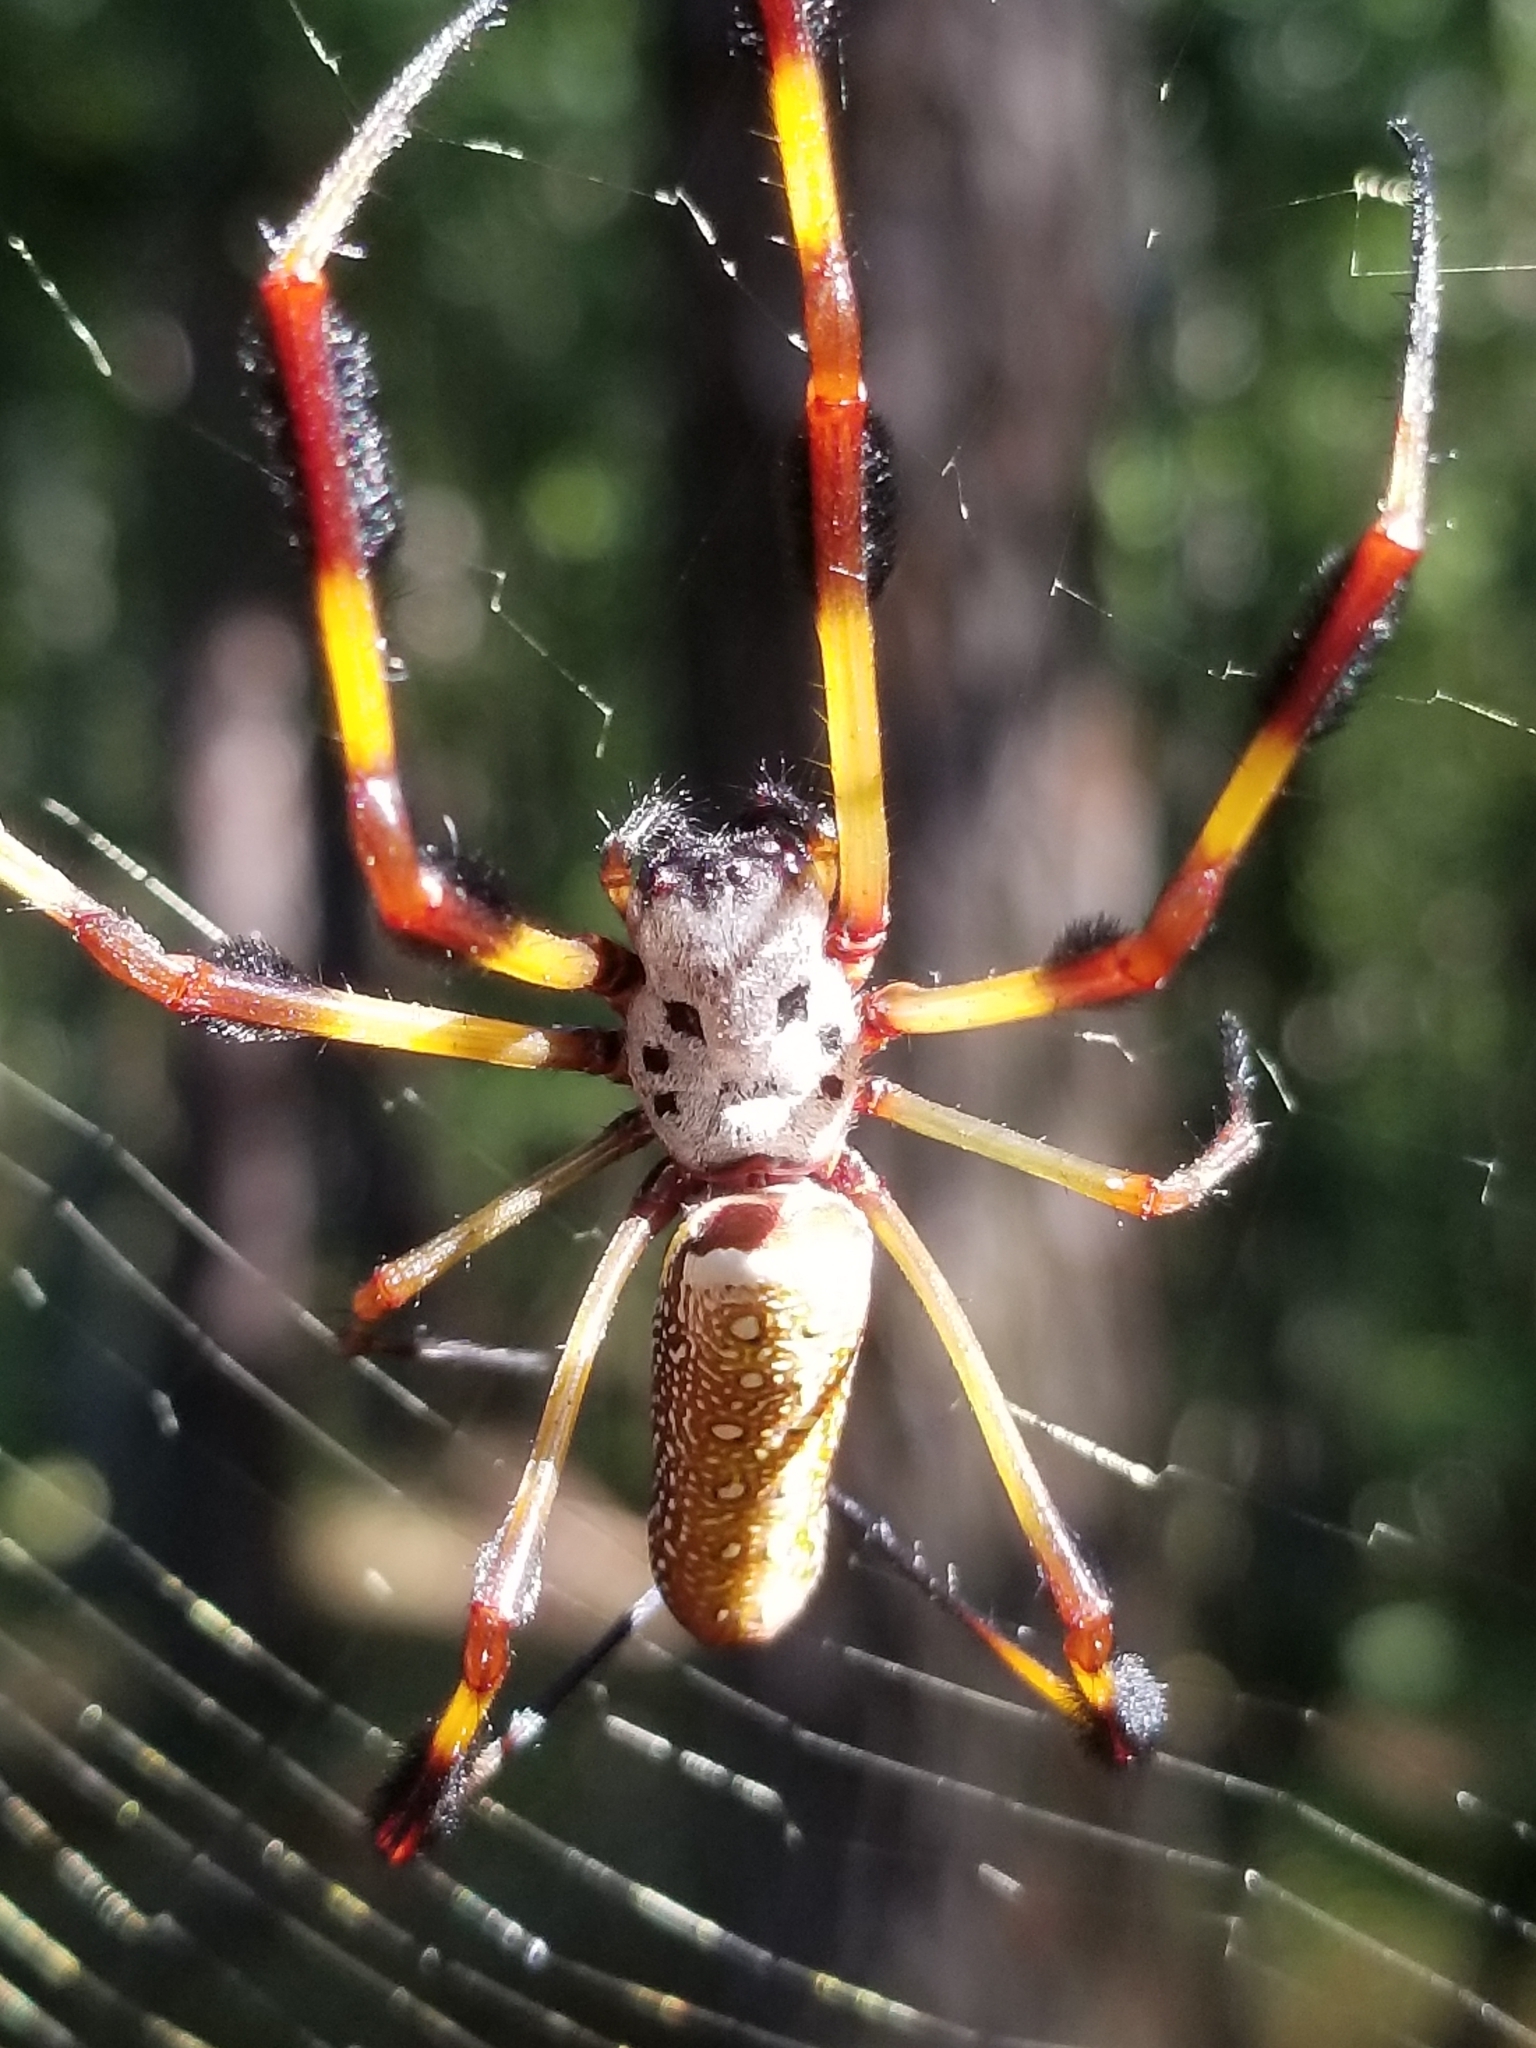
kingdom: Animalia
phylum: Arthropoda
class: Arachnida
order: Araneae
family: Araneidae
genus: Trichonephila
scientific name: Trichonephila clavipes
